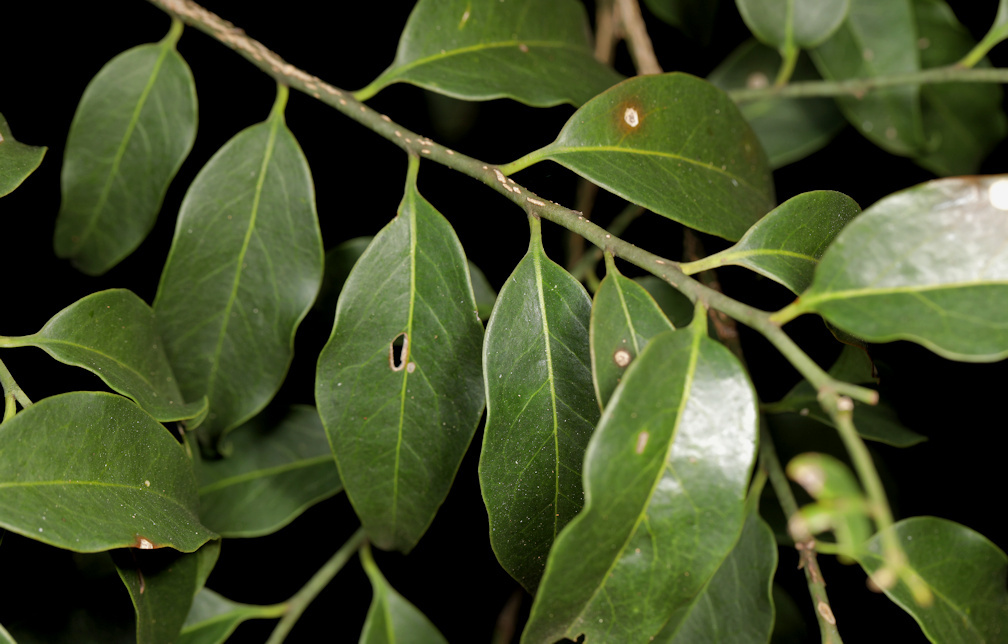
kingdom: Plantae
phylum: Tracheophyta
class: Magnoliopsida
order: Santalales
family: Olacaceae
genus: Olax
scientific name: Olax dissitiflora
